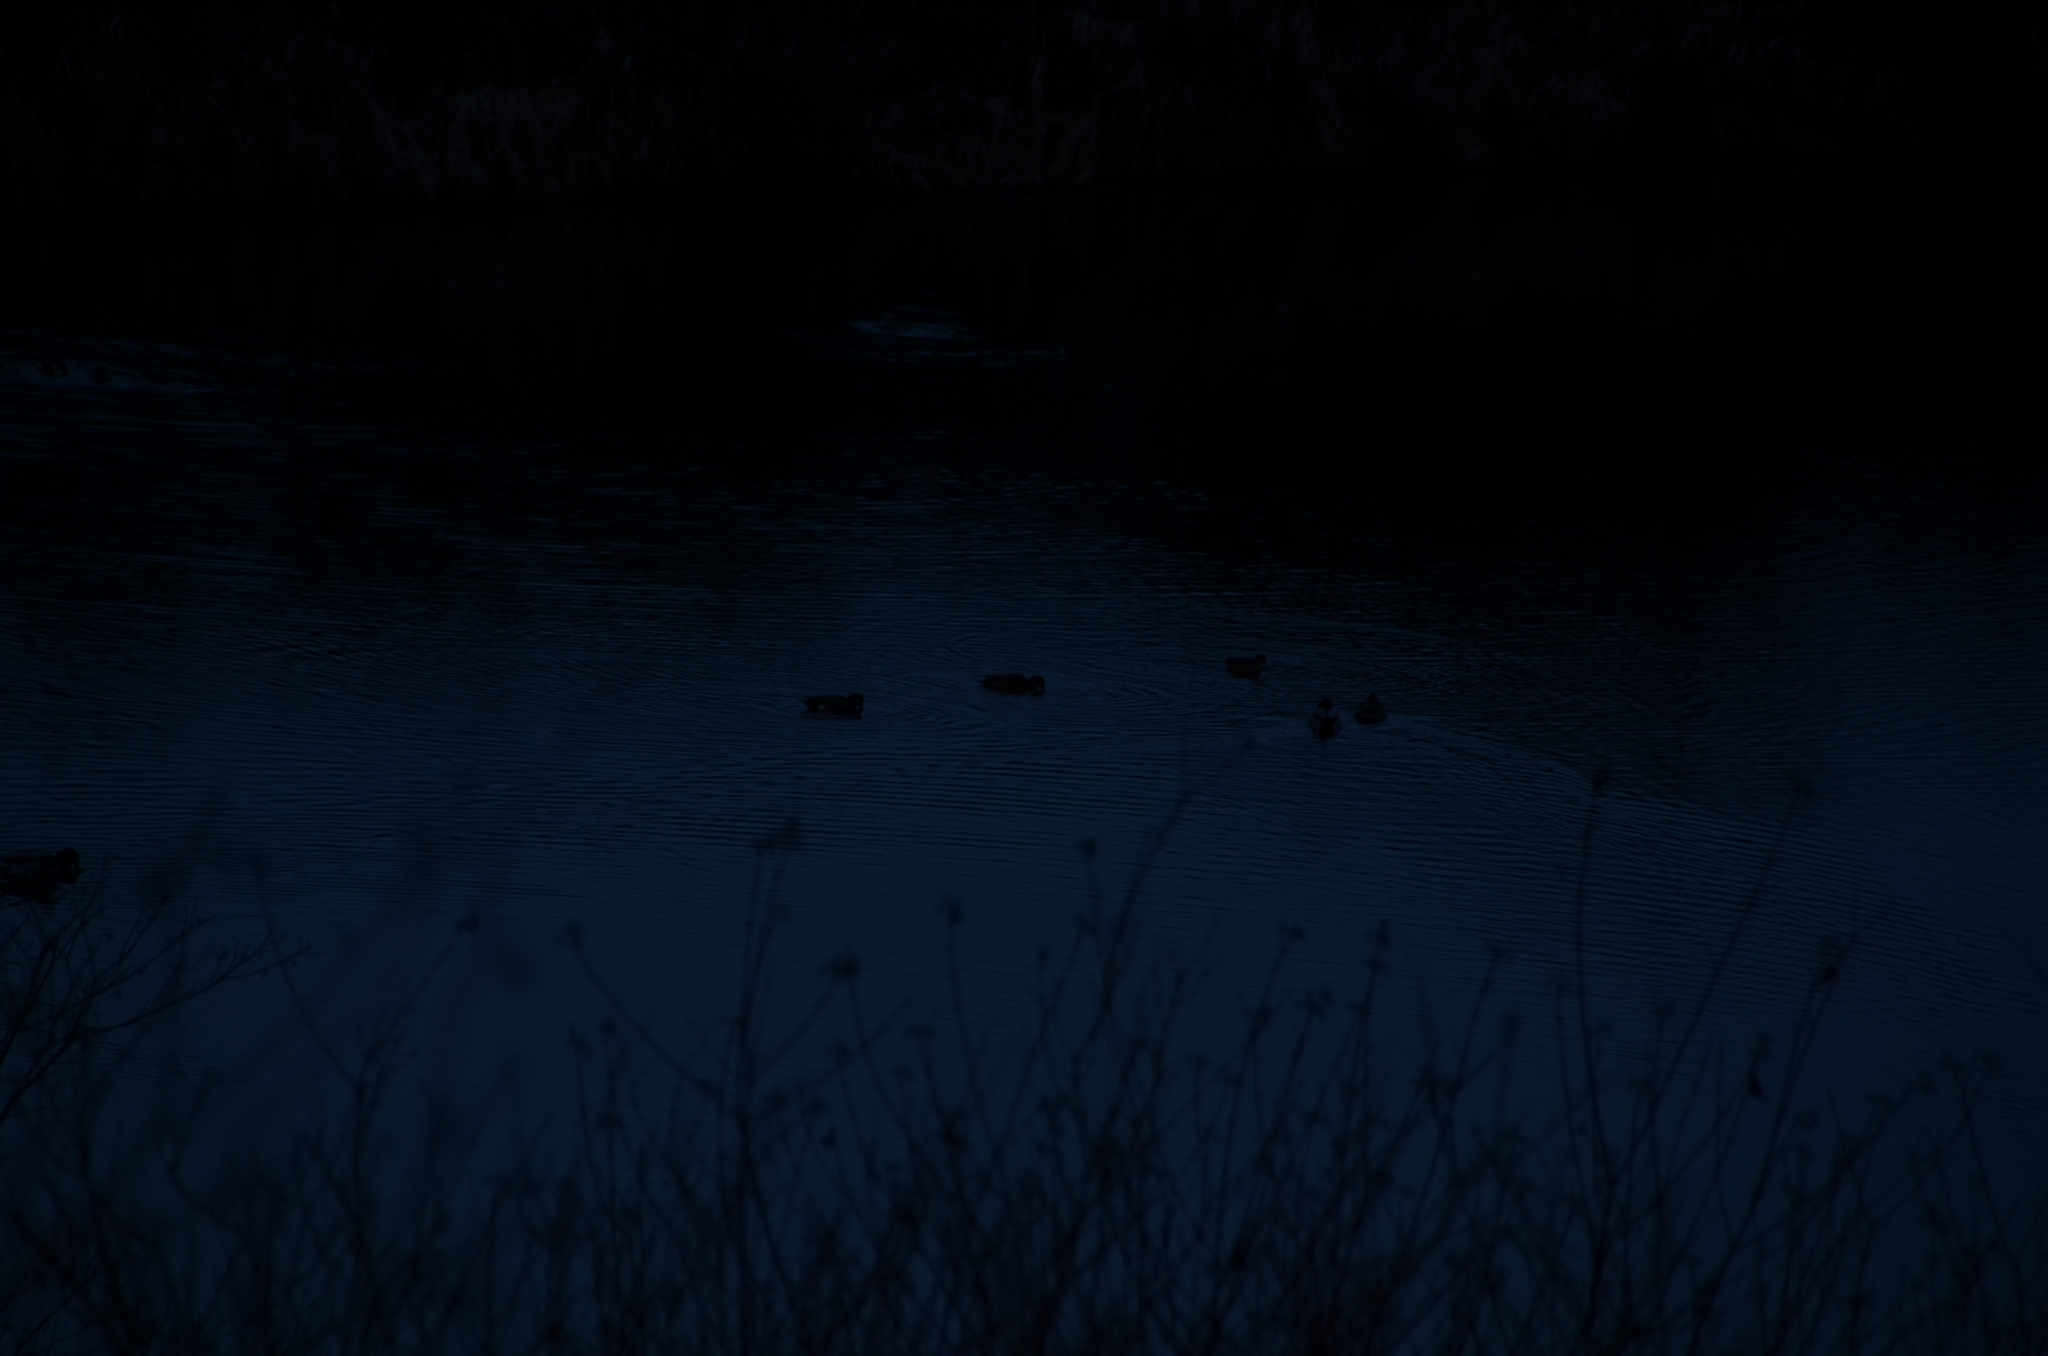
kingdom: Animalia
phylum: Chordata
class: Aves
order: Anseriformes
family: Anatidae
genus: Anas
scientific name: Anas platyrhynchos
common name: Mallard
